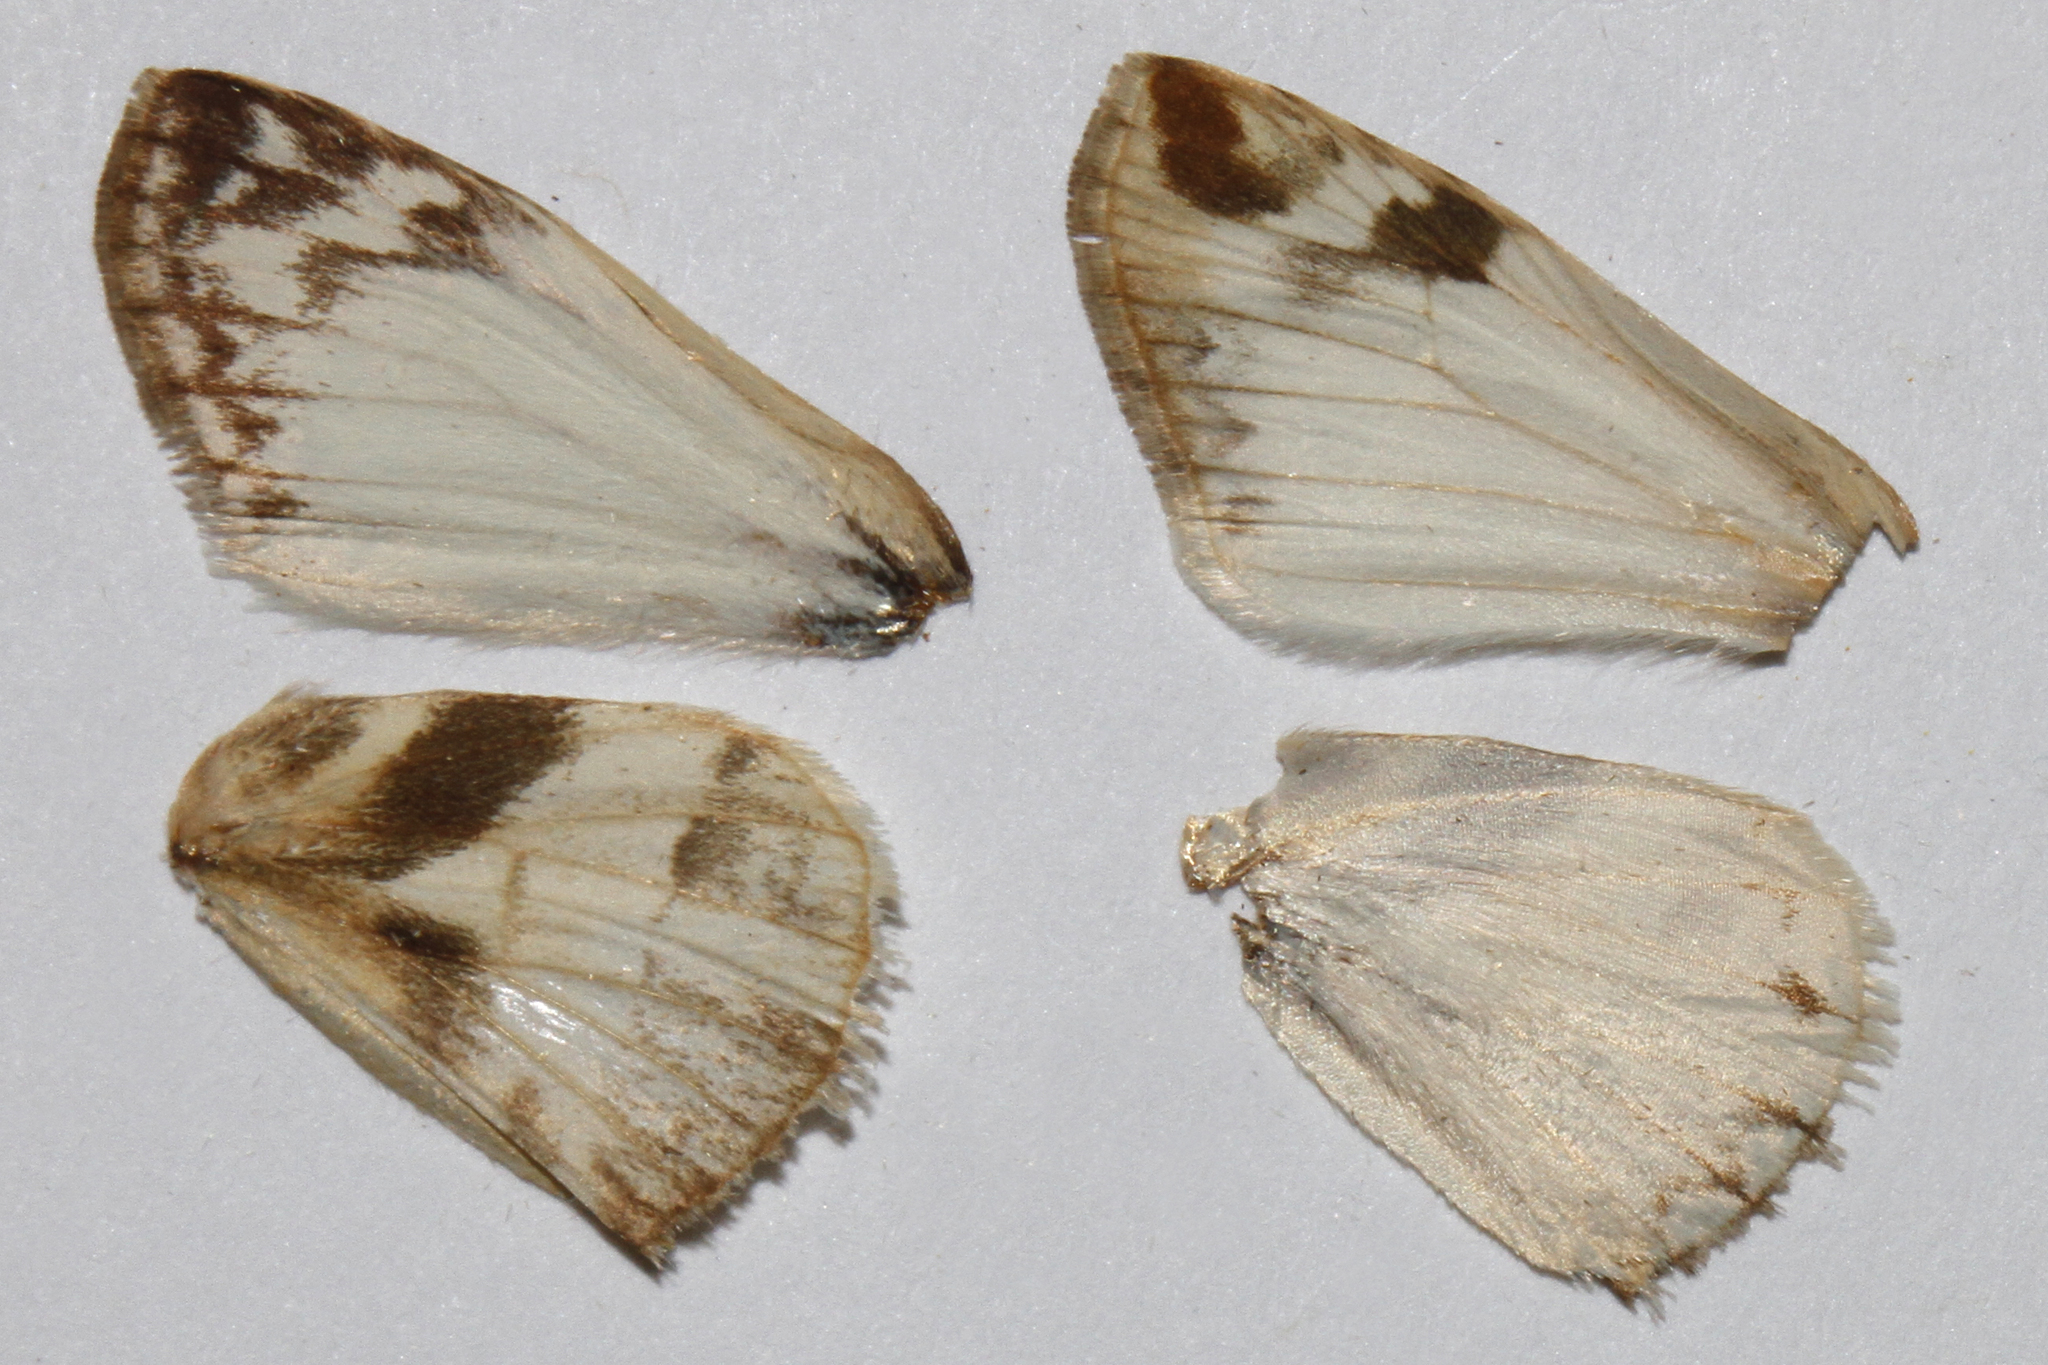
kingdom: Animalia
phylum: Arthropoda
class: Insecta
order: Lepidoptera
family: Hesperiidae
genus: Heliopetes
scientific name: Heliopetes laviana
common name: Laviana white-skipper
